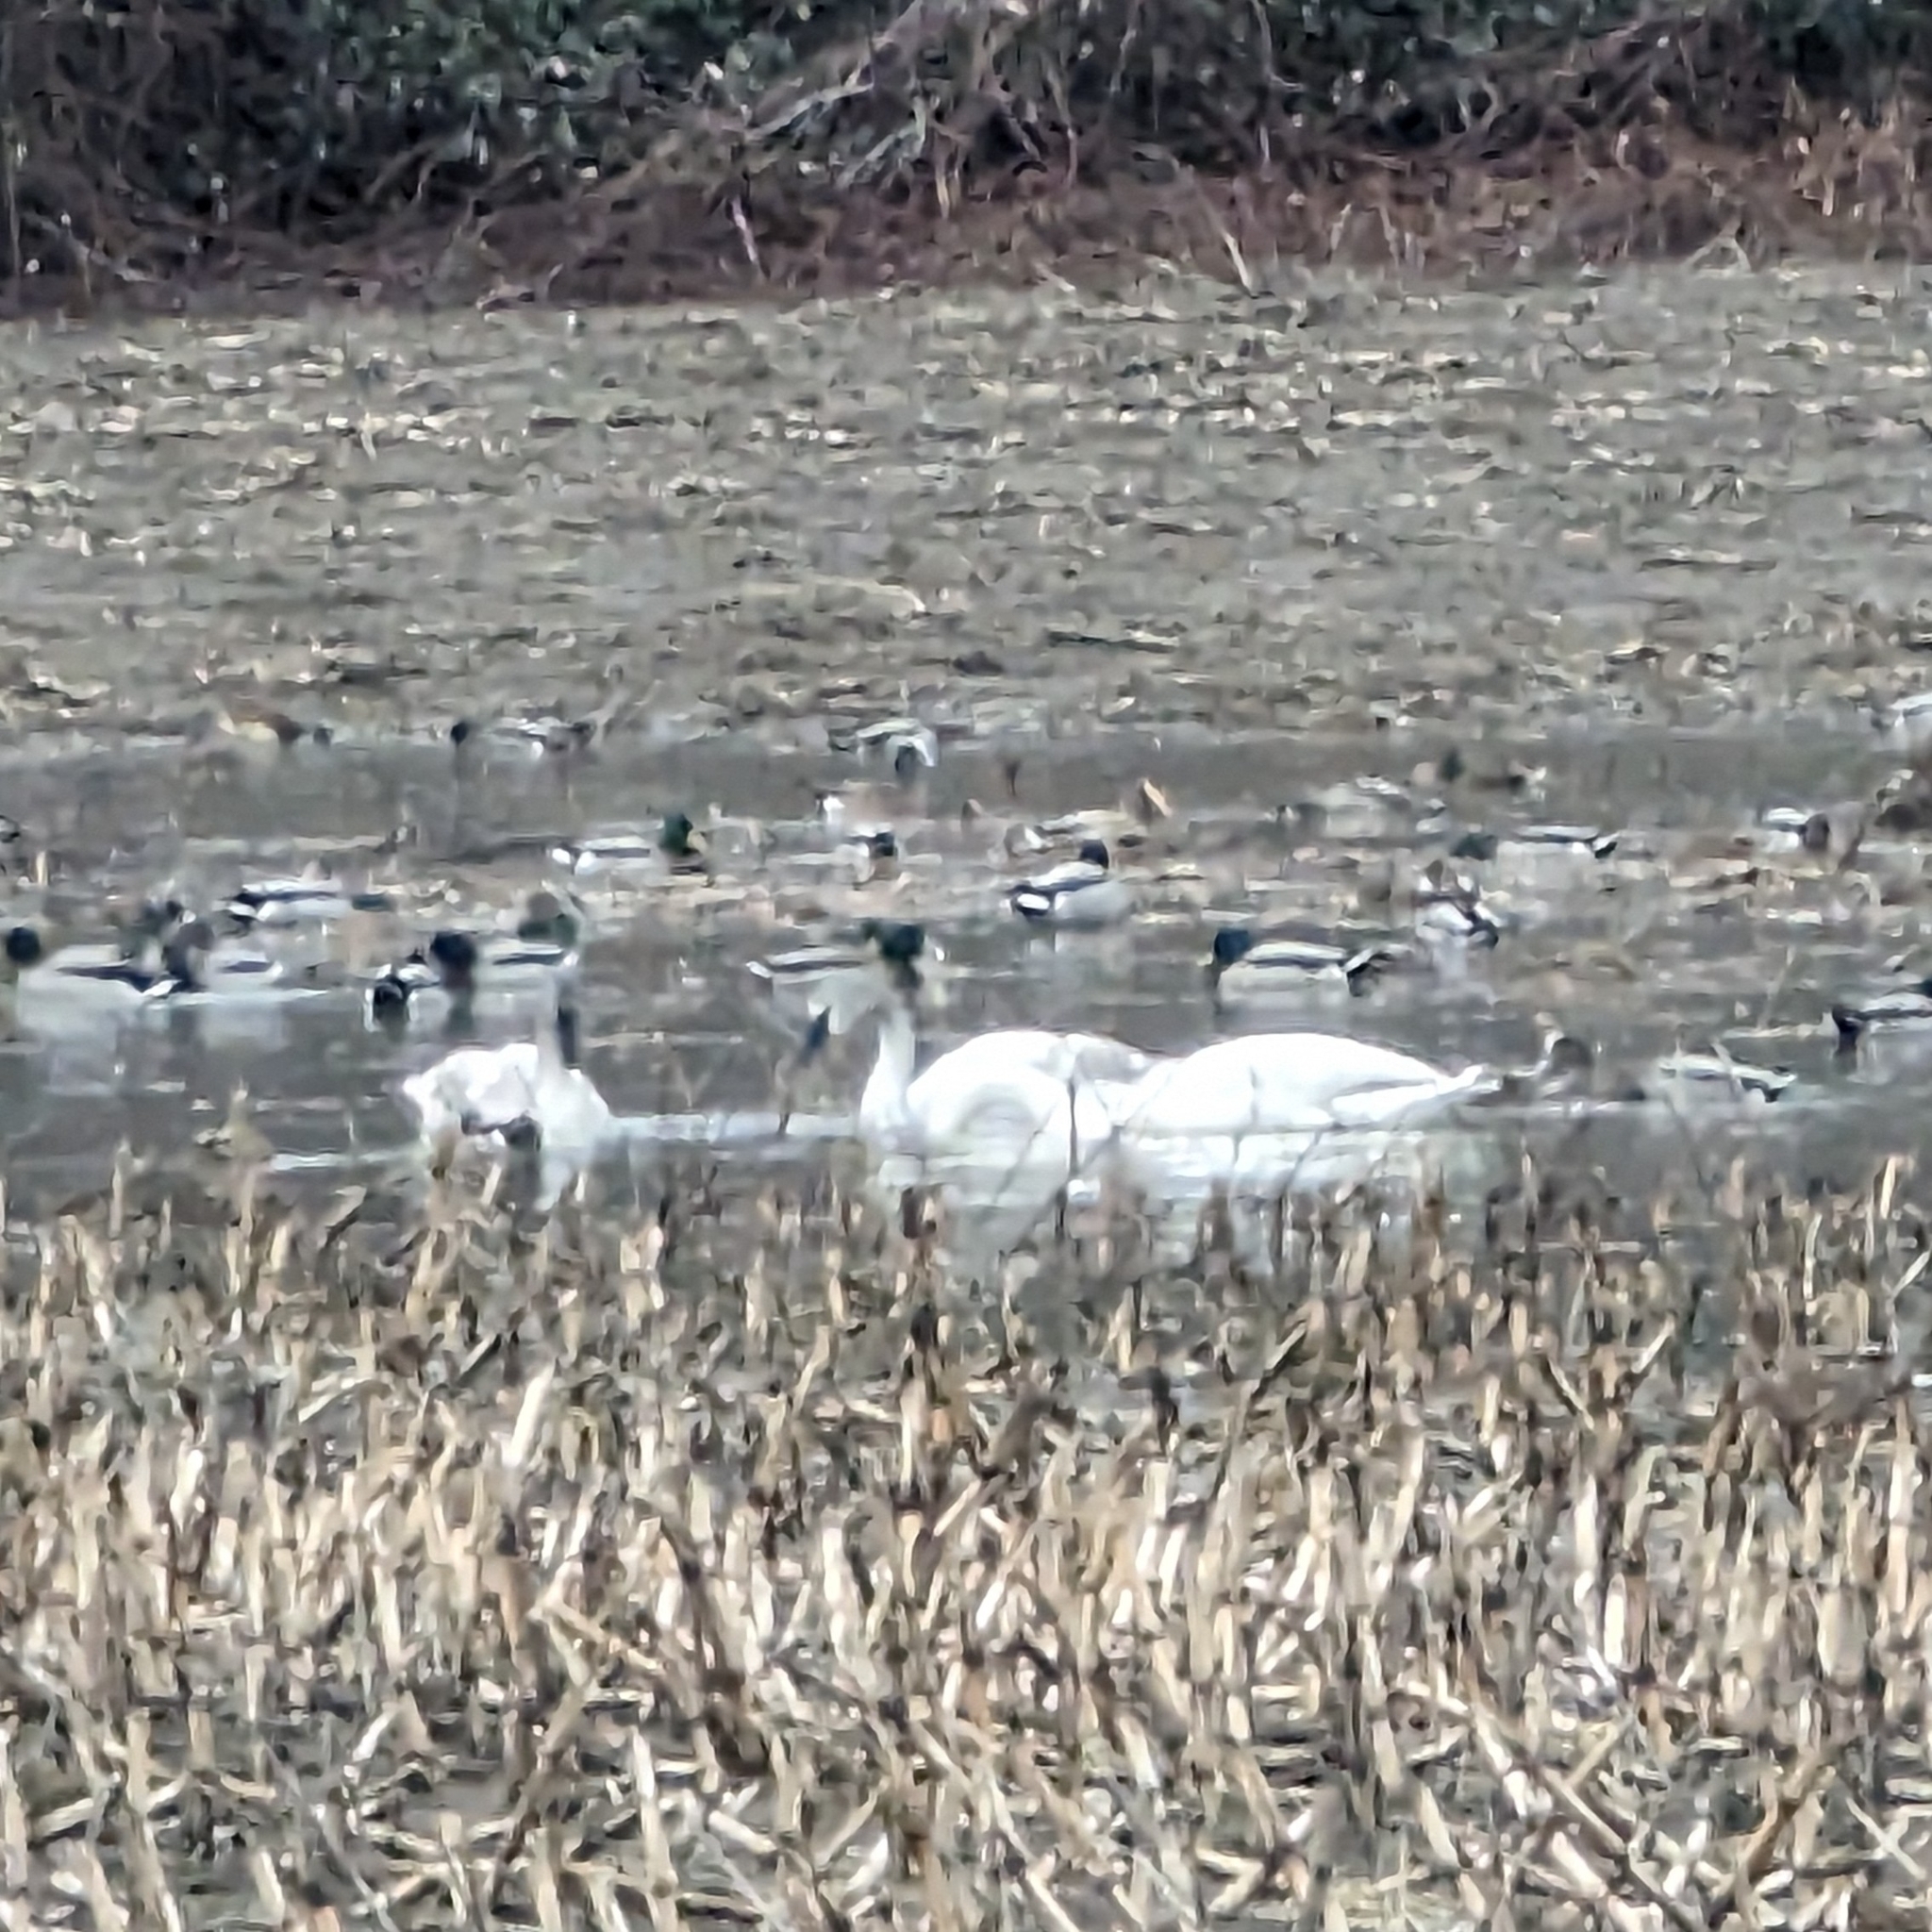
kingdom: Animalia
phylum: Chordata
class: Aves
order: Anseriformes
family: Anatidae
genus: Cygnus
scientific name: Cygnus buccinator
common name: Trumpeter swan
